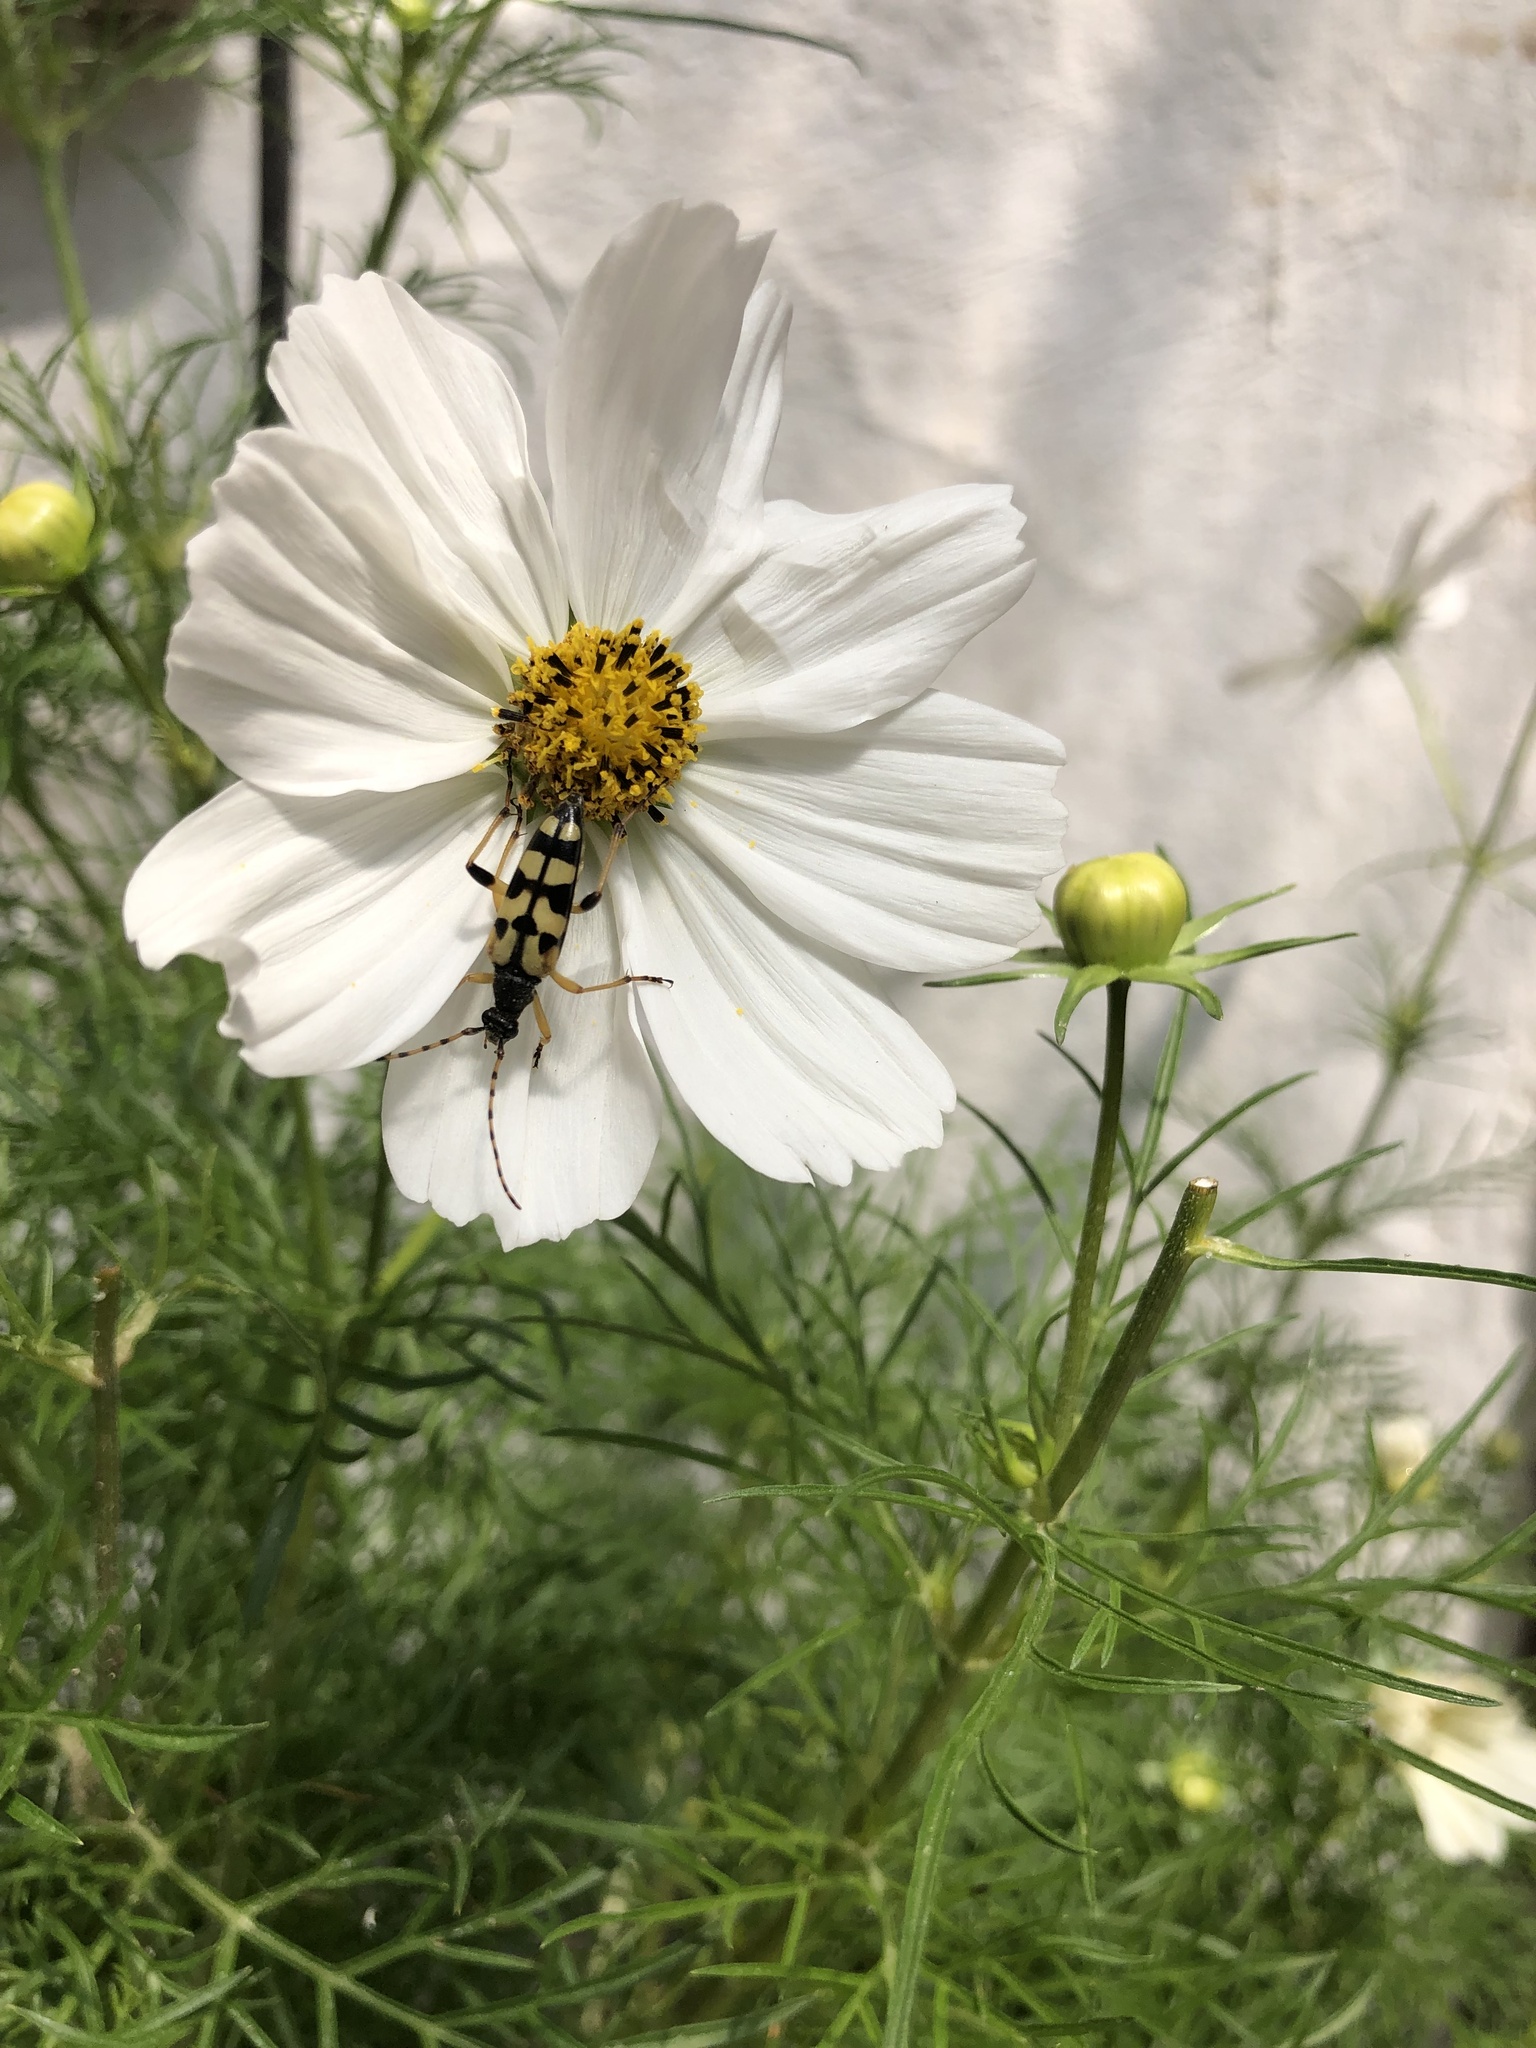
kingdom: Animalia
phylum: Arthropoda
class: Insecta
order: Coleoptera
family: Cerambycidae
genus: Rutpela
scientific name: Rutpela maculata
